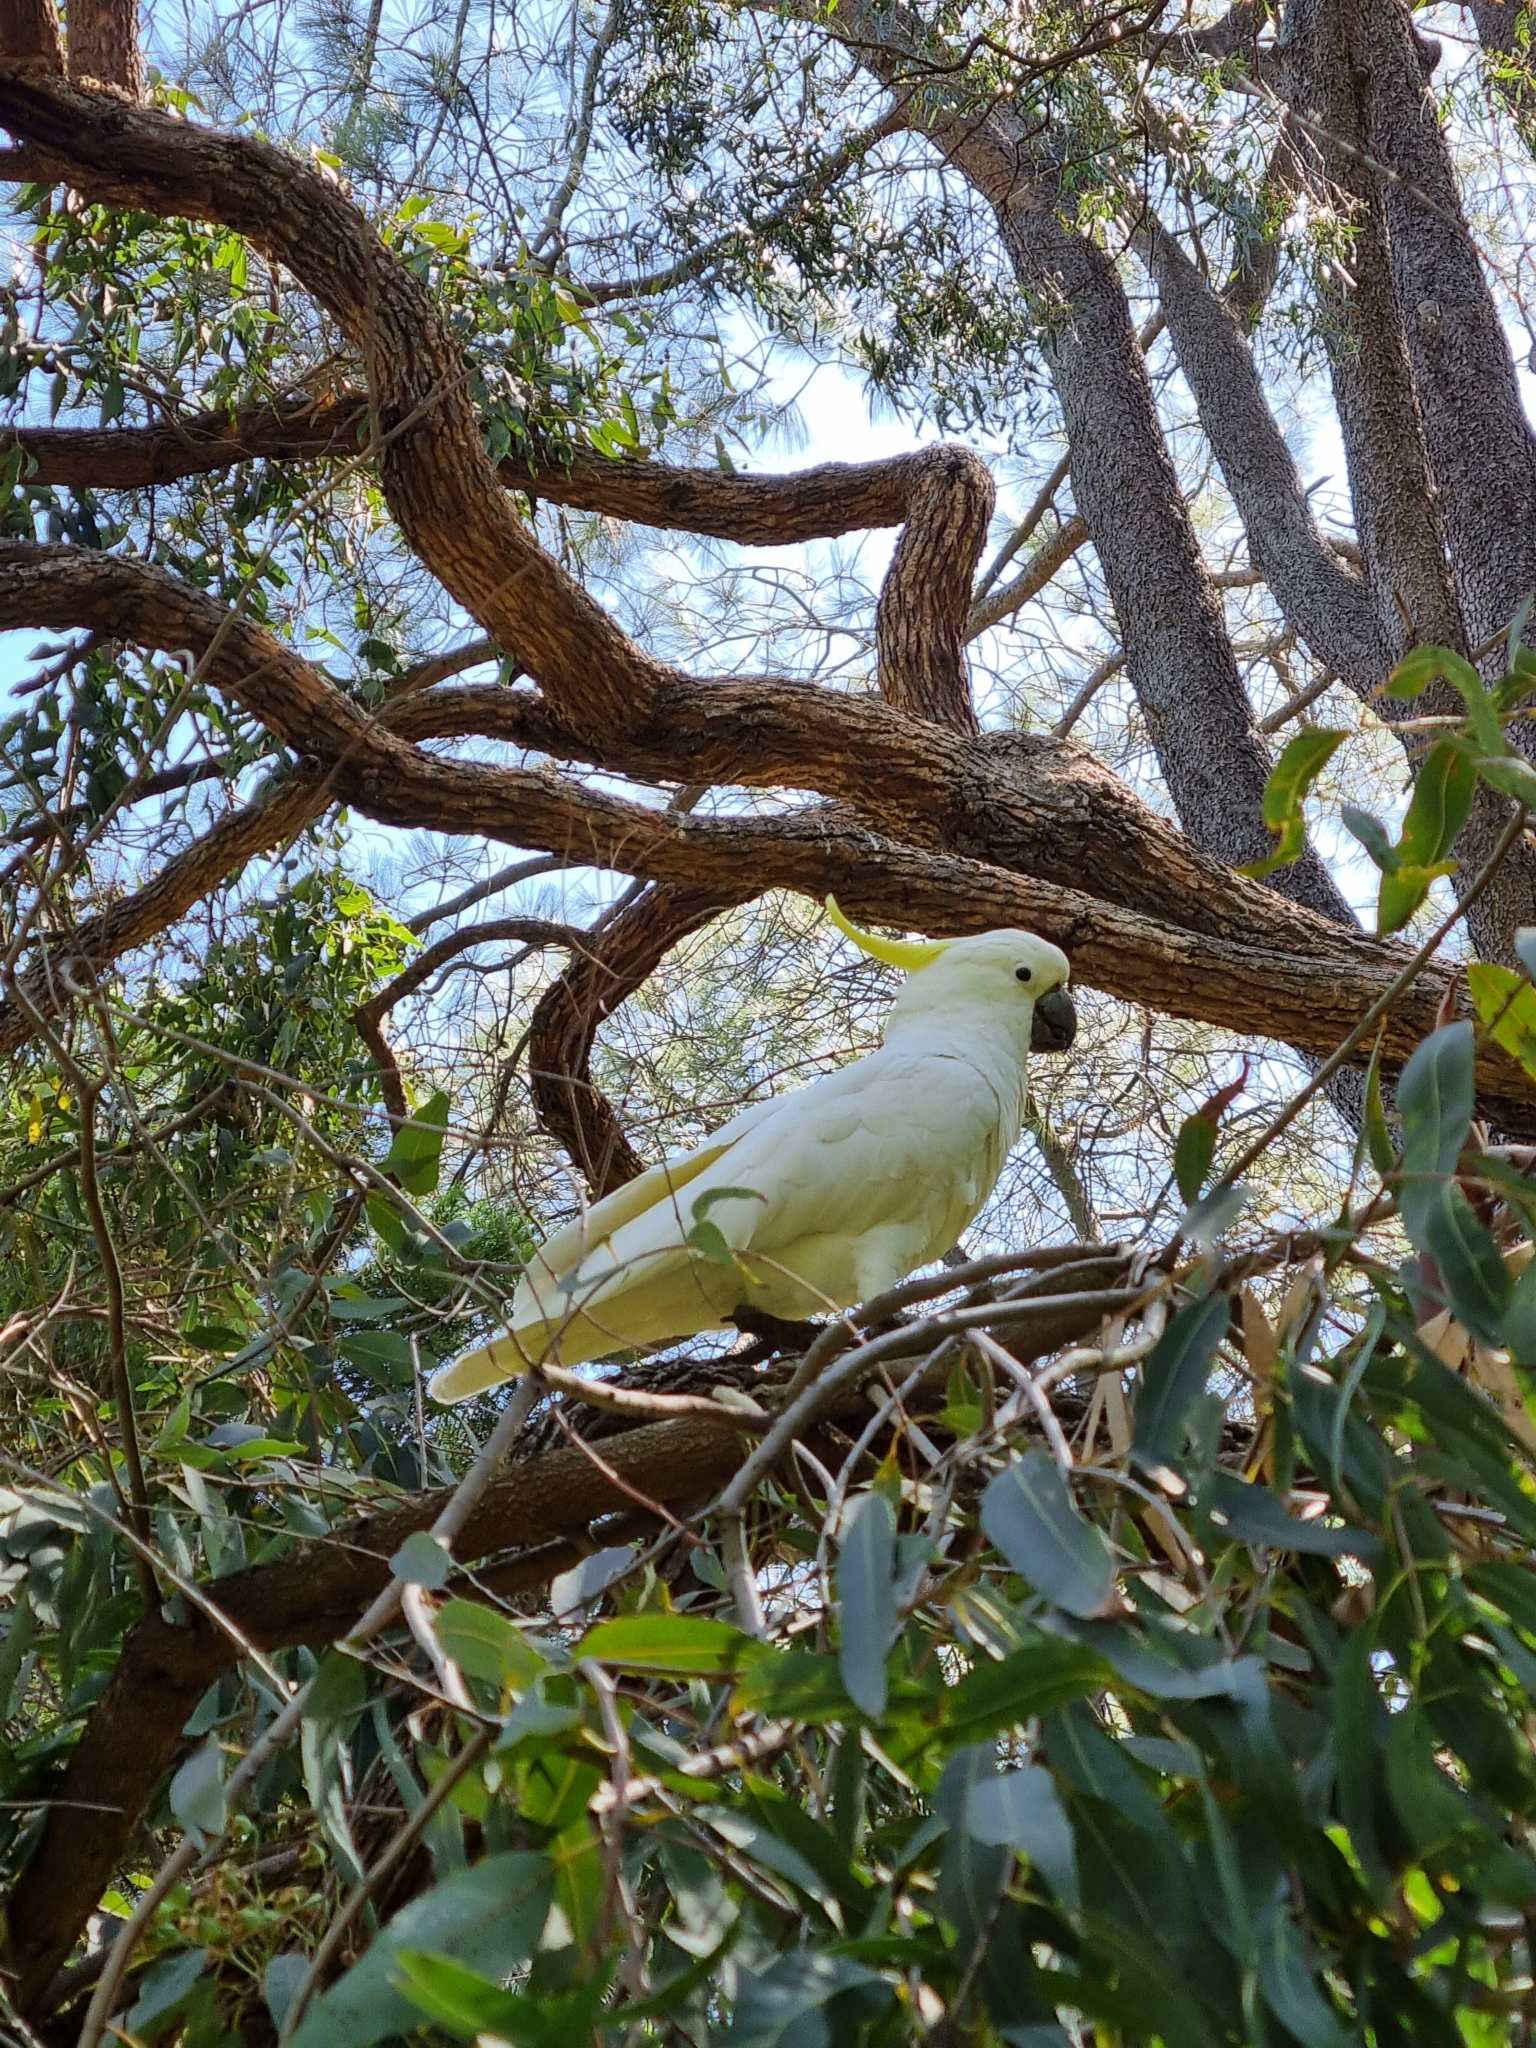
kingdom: Animalia
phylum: Chordata
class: Aves
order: Psittaciformes
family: Psittacidae
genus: Cacatua
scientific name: Cacatua galerita
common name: Sulphur-crested cockatoo
